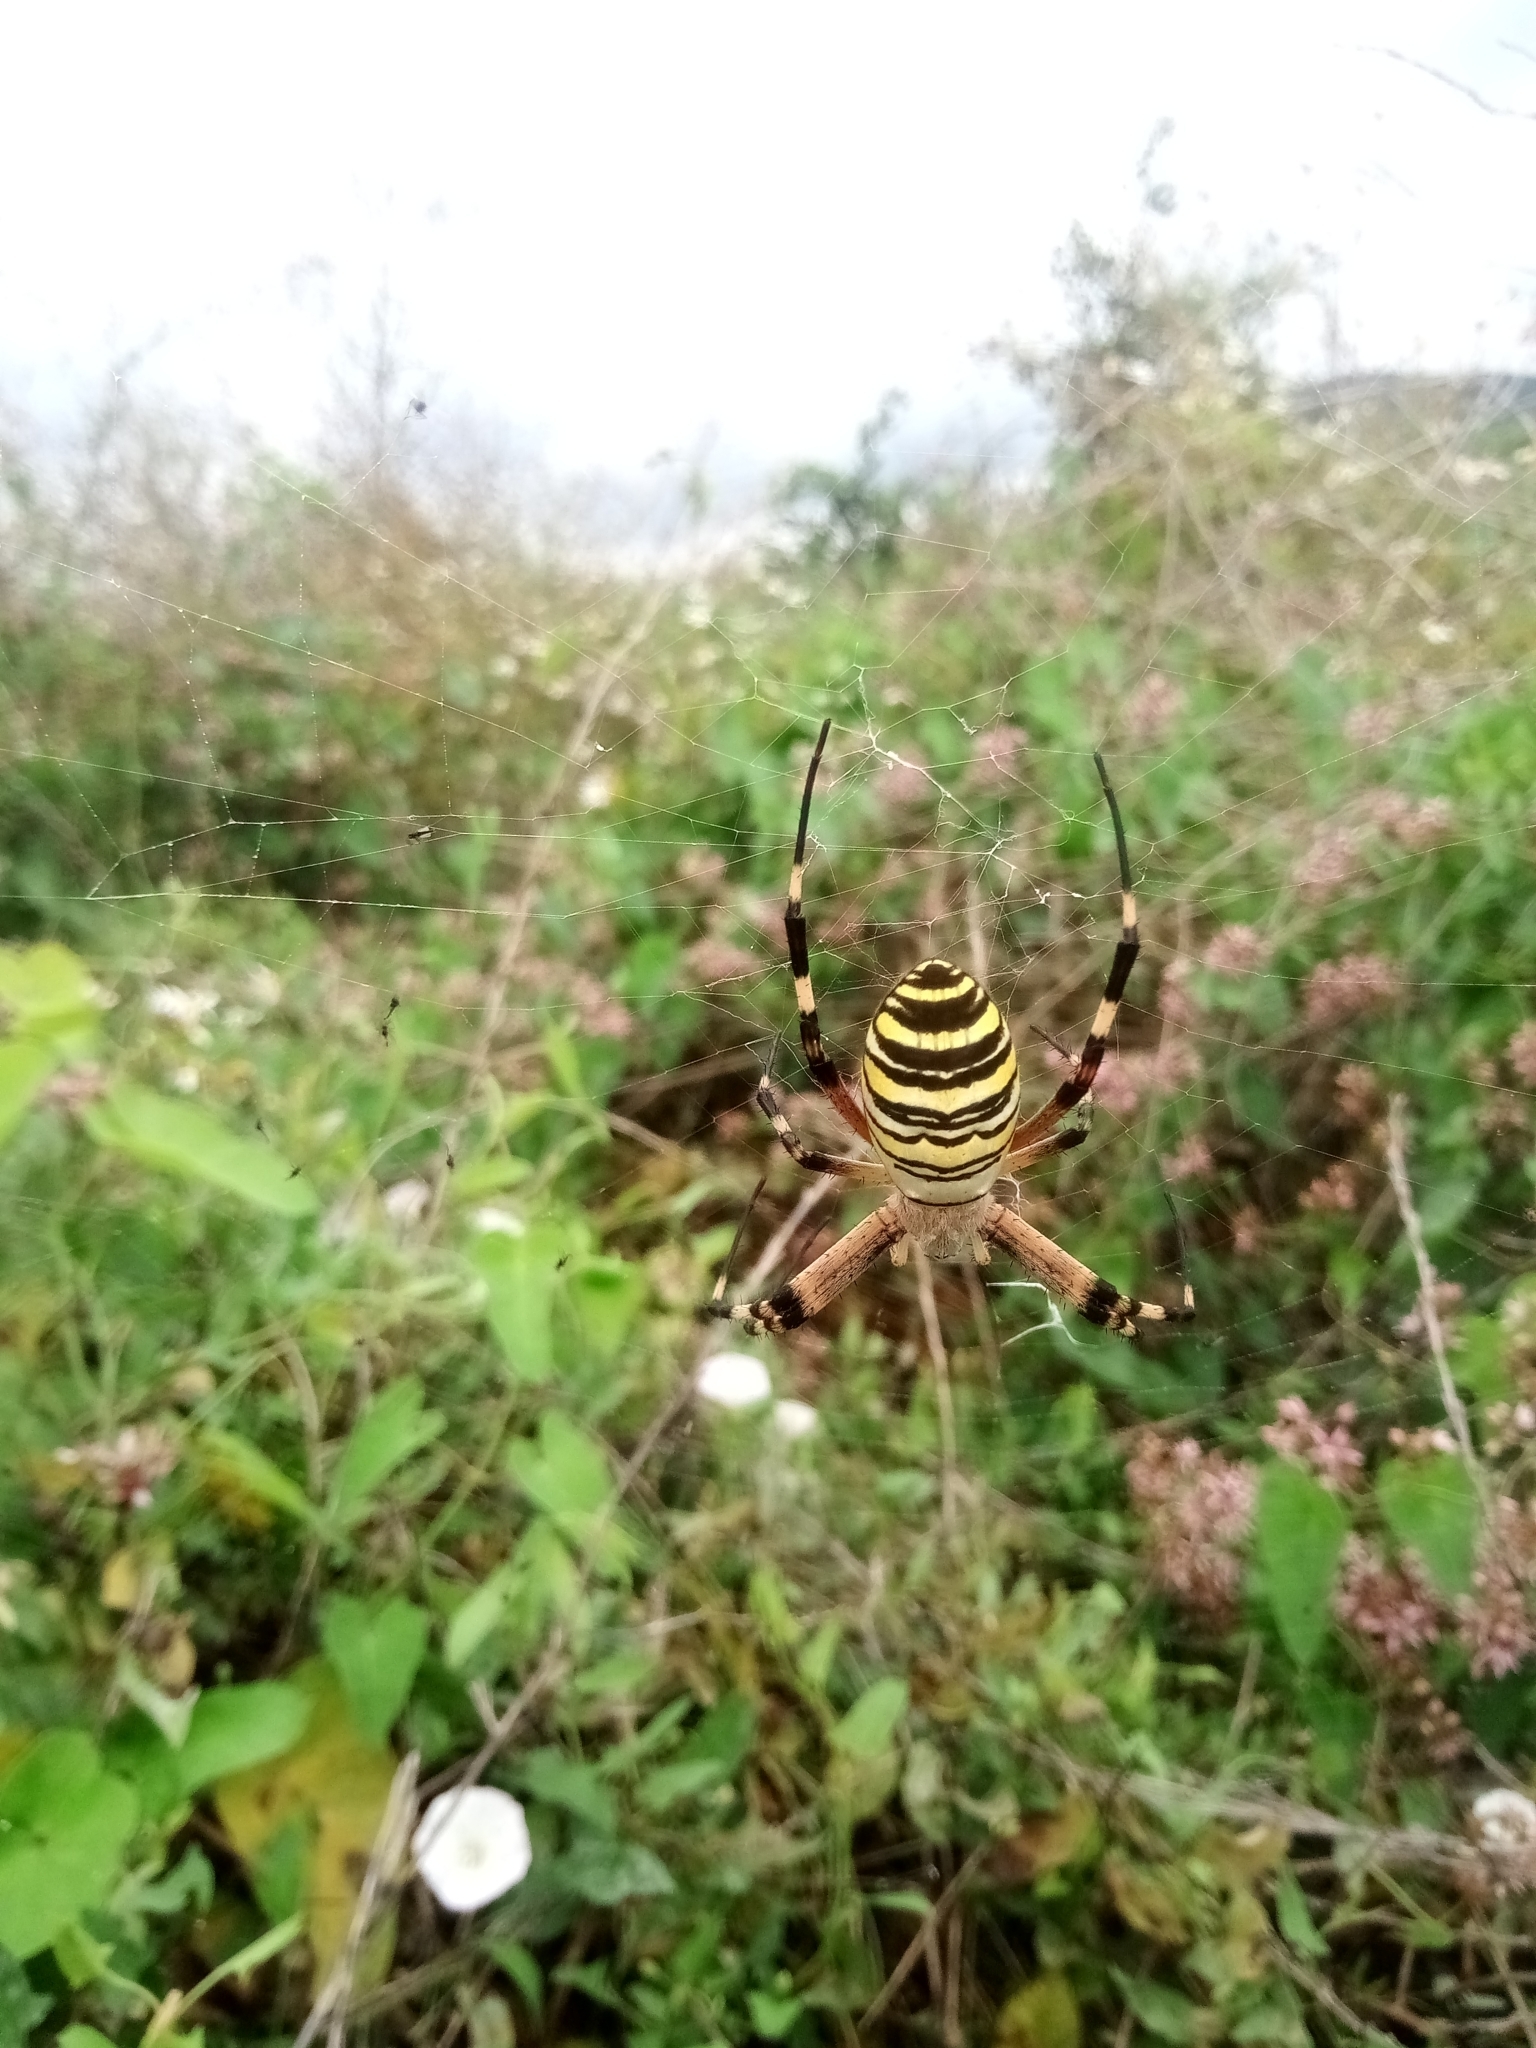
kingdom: Animalia
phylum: Arthropoda
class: Arachnida
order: Araneae
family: Araneidae
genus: Argiope
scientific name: Argiope bruennichi
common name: Wasp spider
